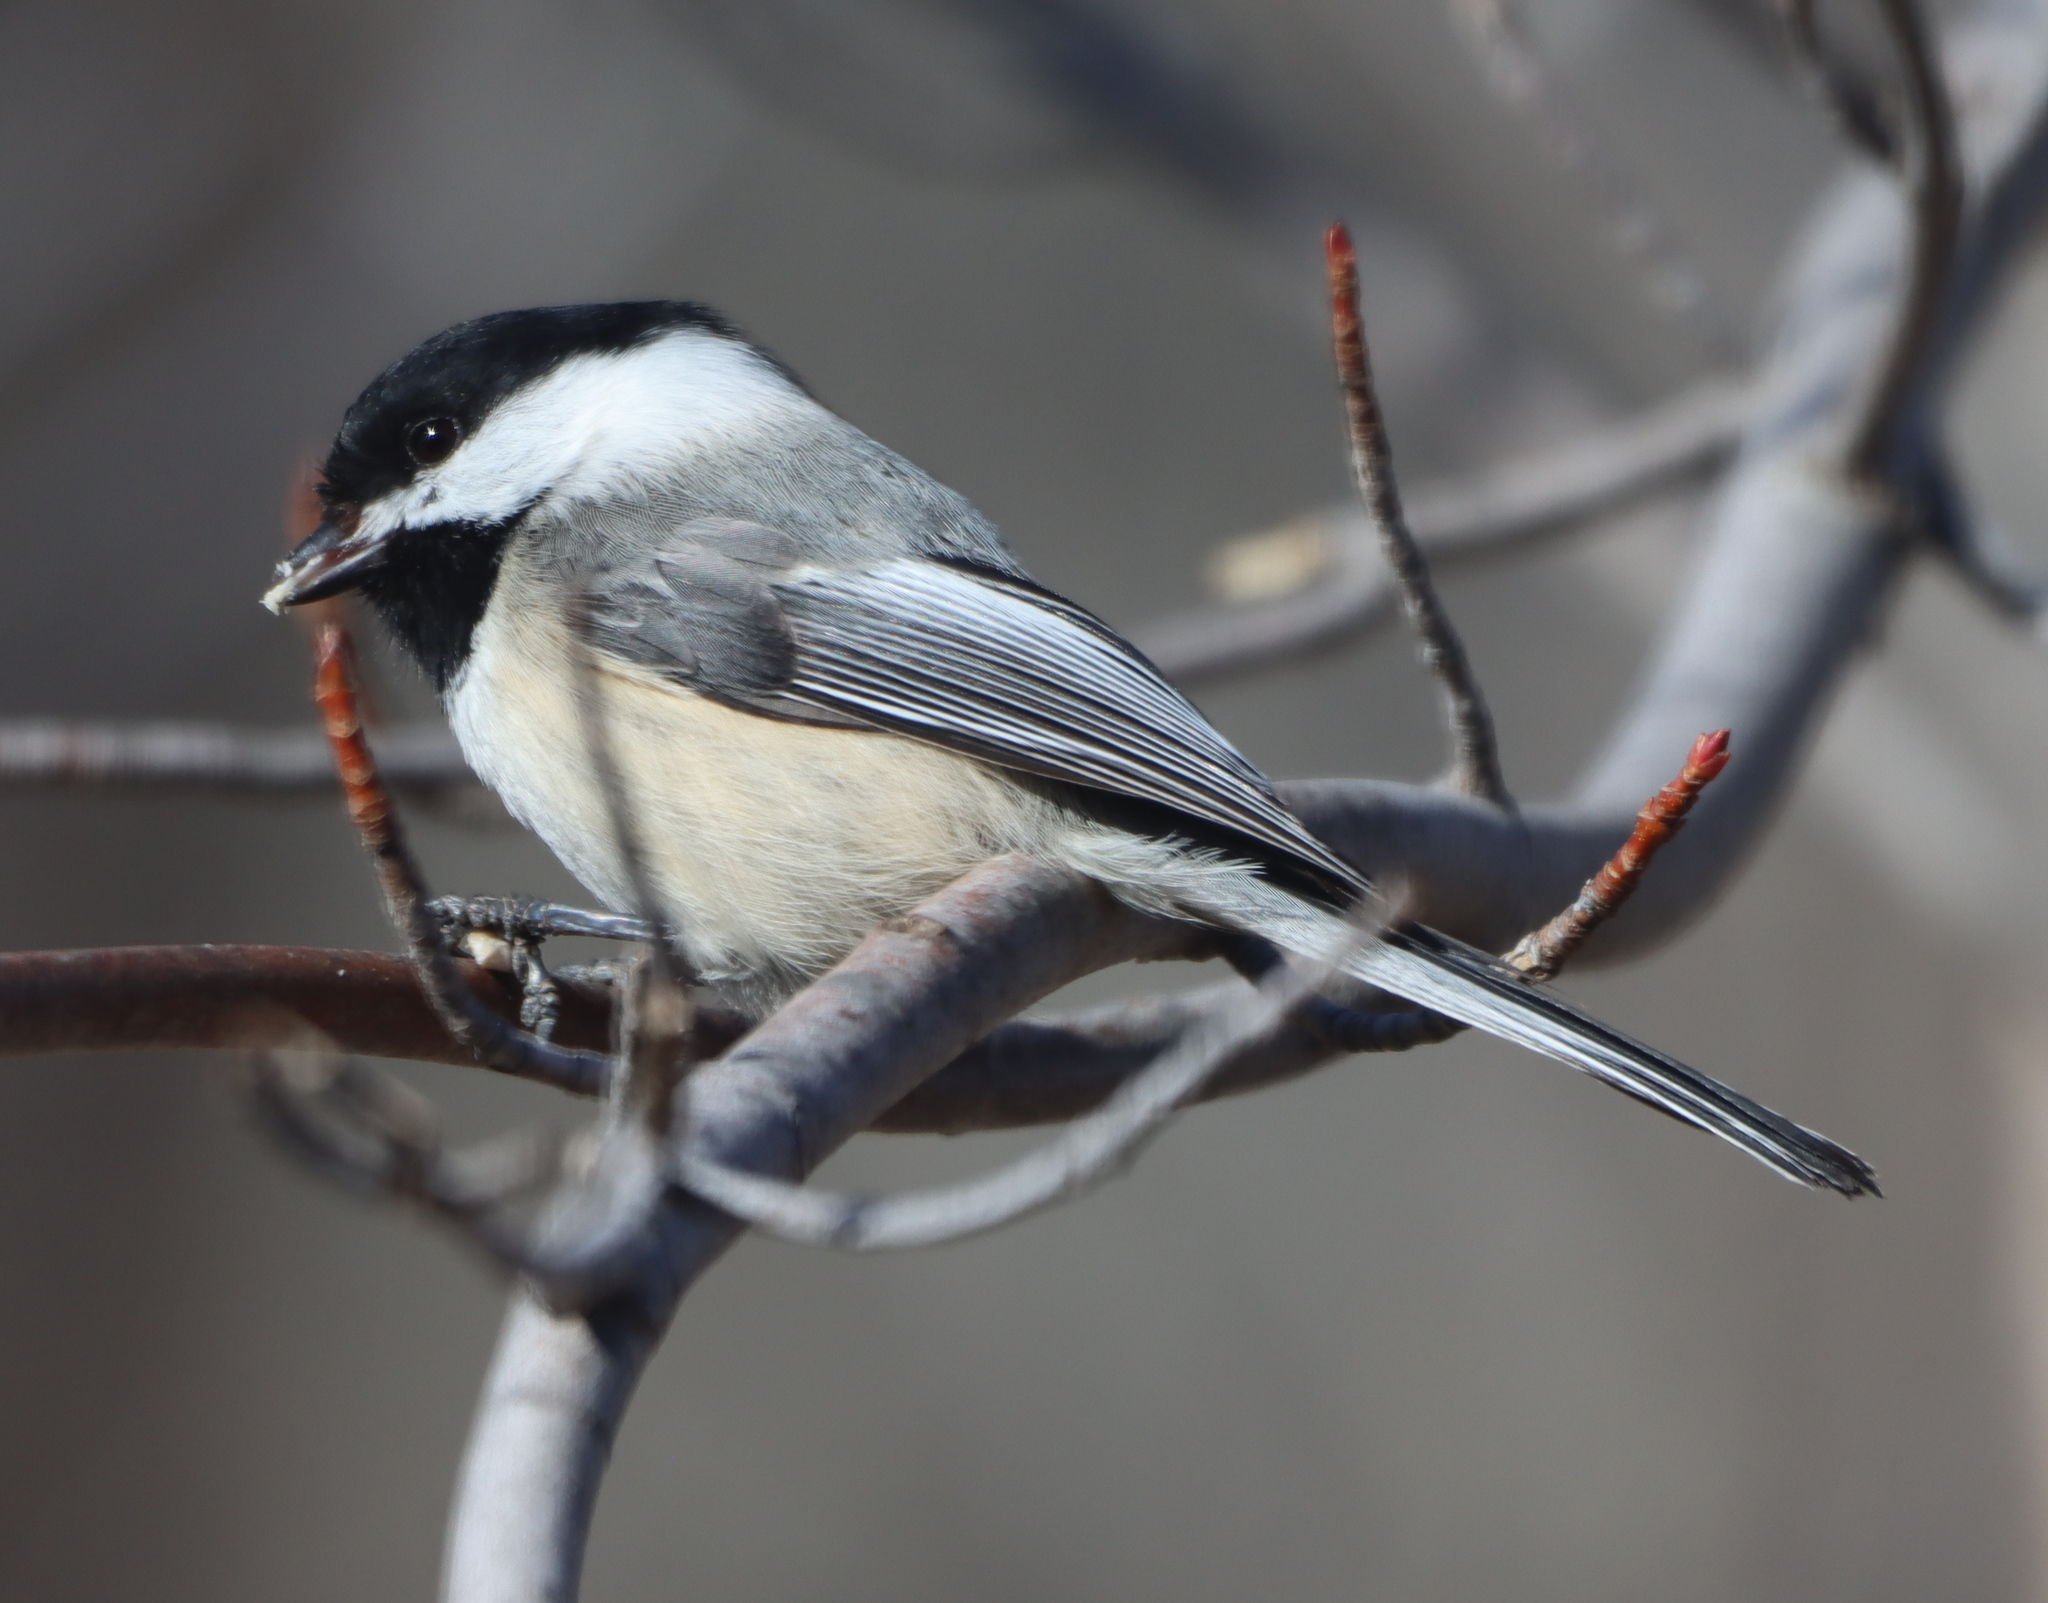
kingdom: Animalia
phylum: Chordata
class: Aves
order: Passeriformes
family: Paridae
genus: Poecile
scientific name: Poecile atricapillus
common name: Black-capped chickadee
